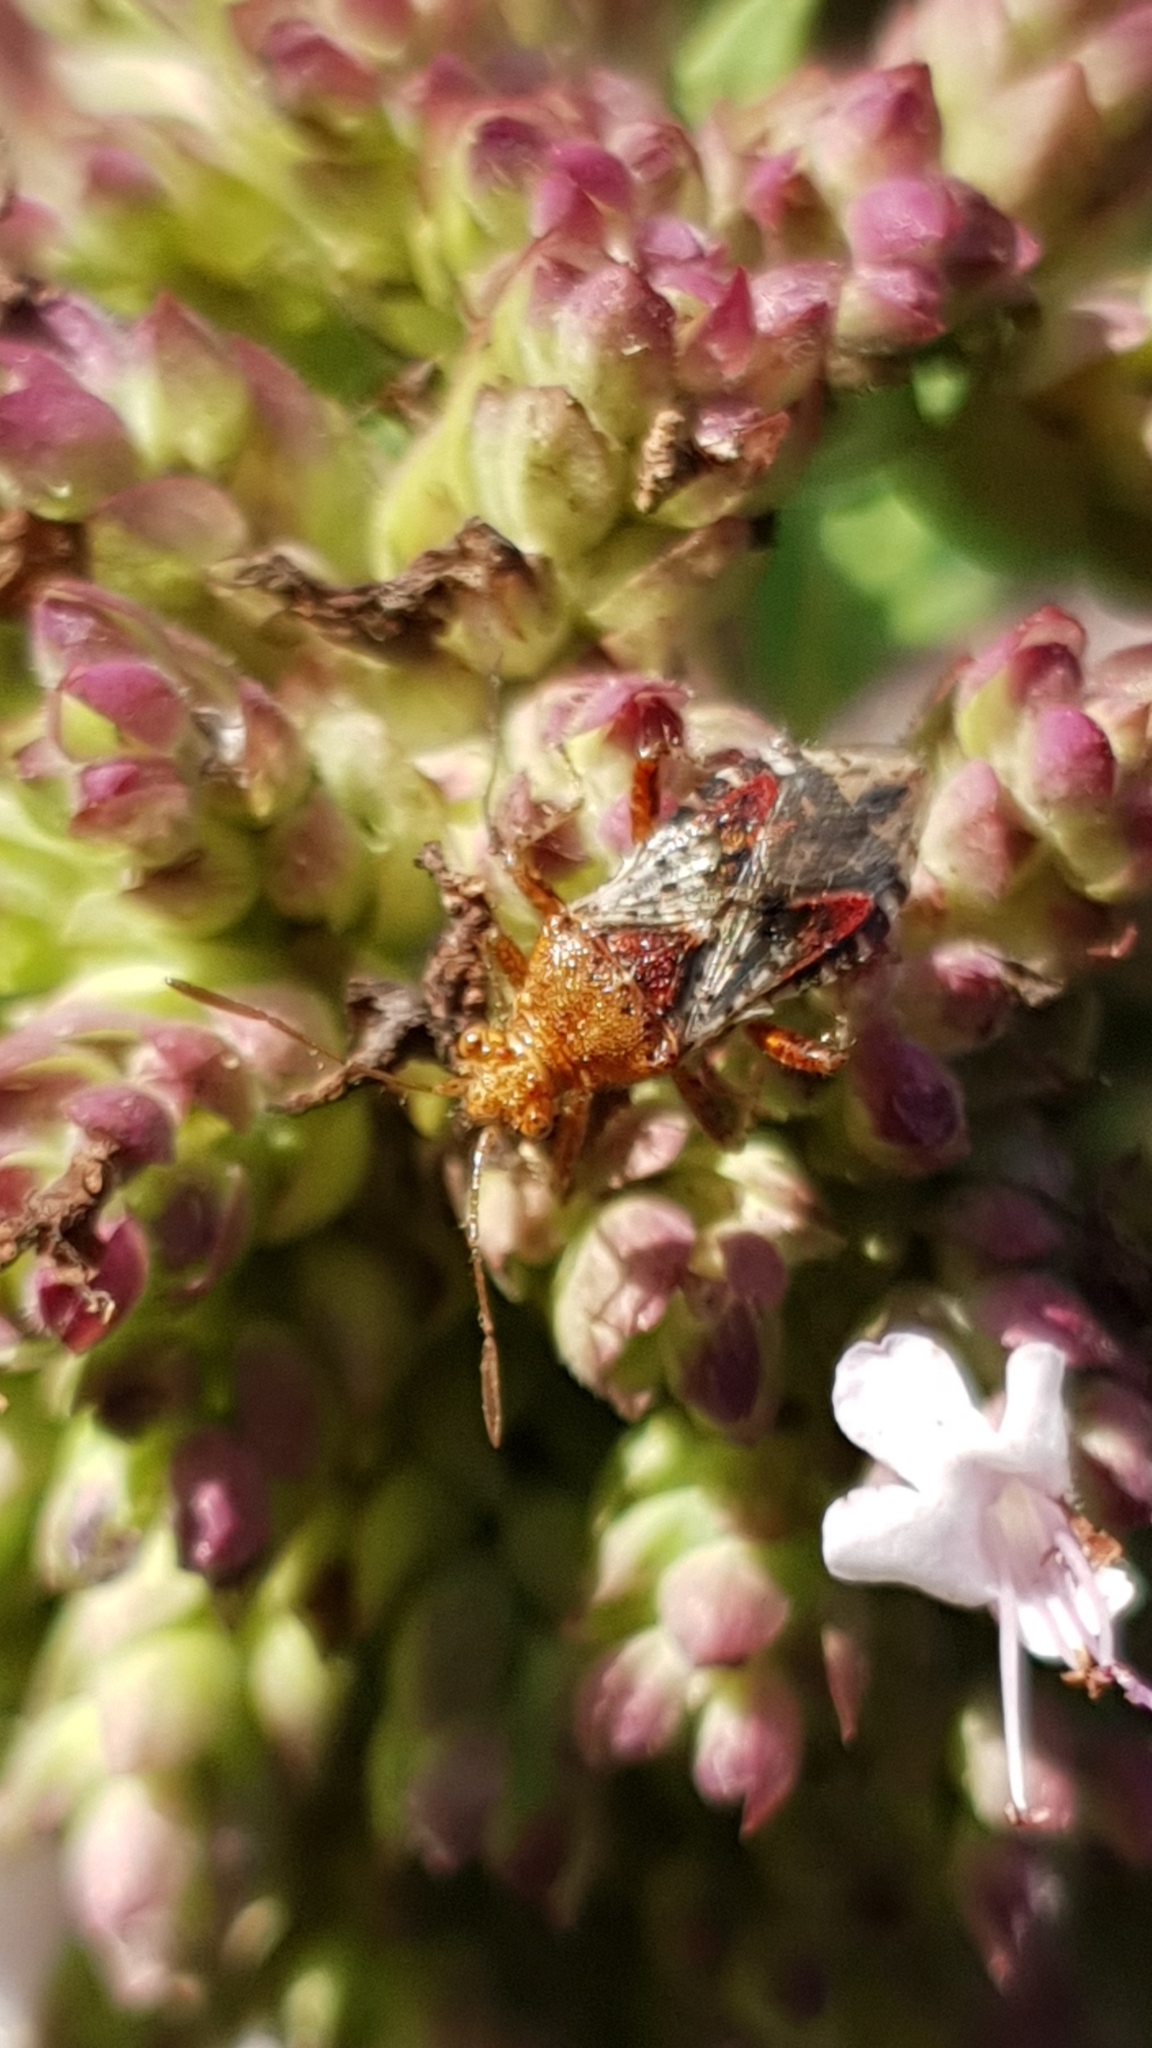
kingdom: Animalia
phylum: Arthropoda
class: Insecta
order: Hemiptera
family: Rhopalidae
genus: Rhopalus
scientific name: Rhopalus subrufus
